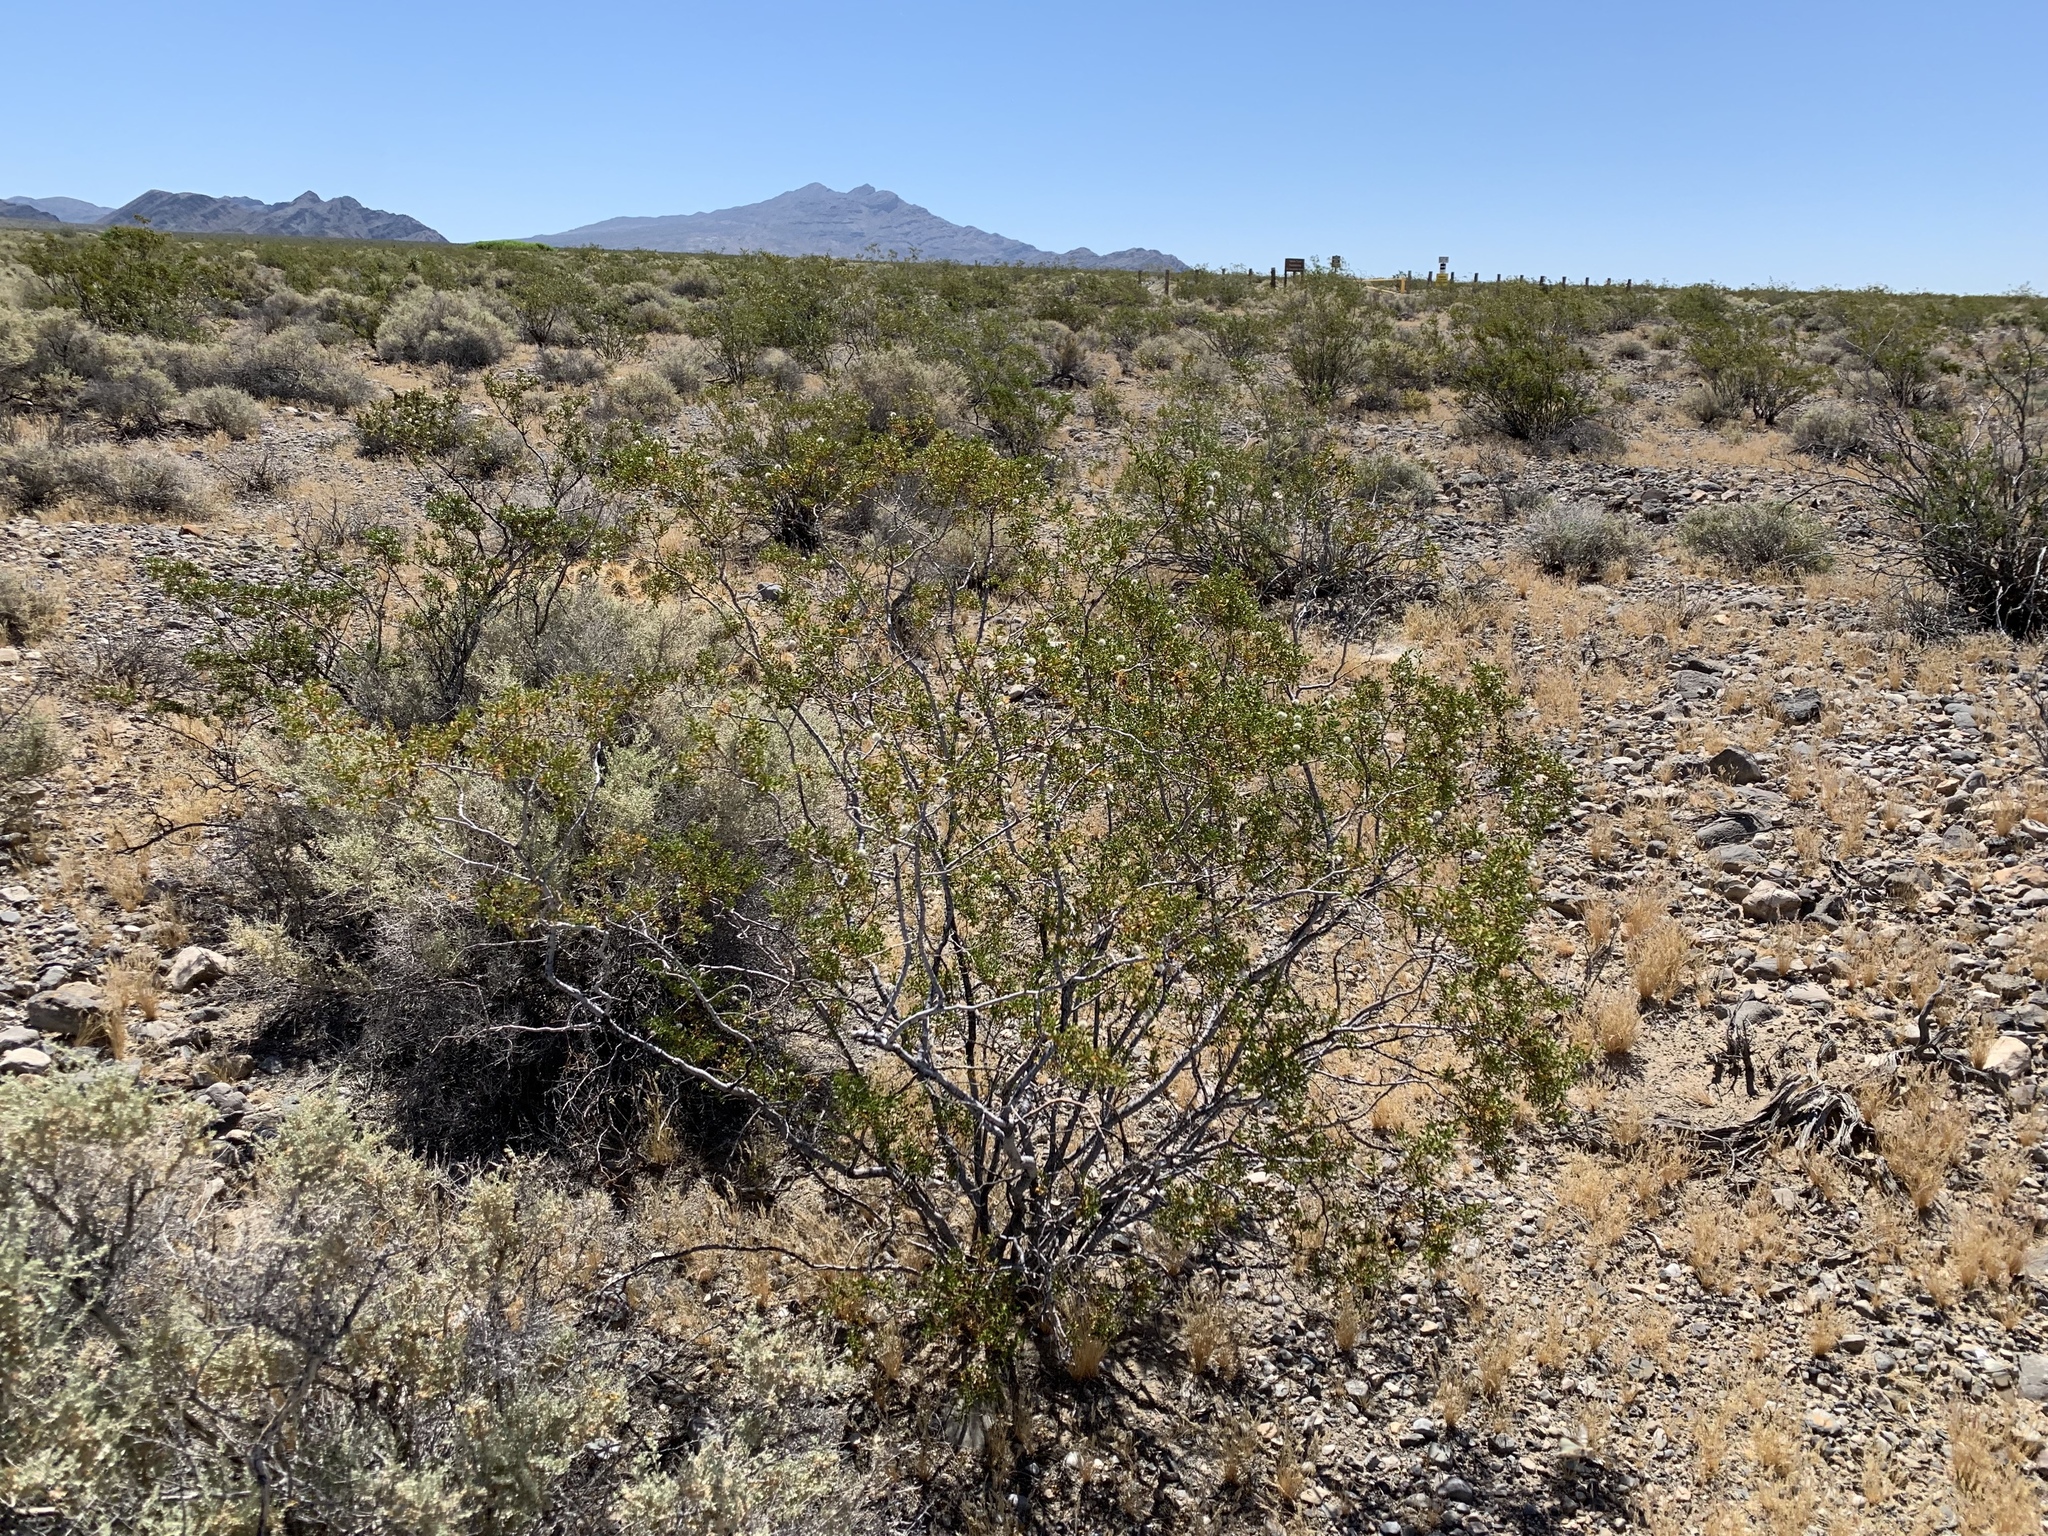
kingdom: Plantae
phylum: Tracheophyta
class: Magnoliopsida
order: Zygophyllales
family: Zygophyllaceae
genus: Larrea
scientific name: Larrea tridentata
